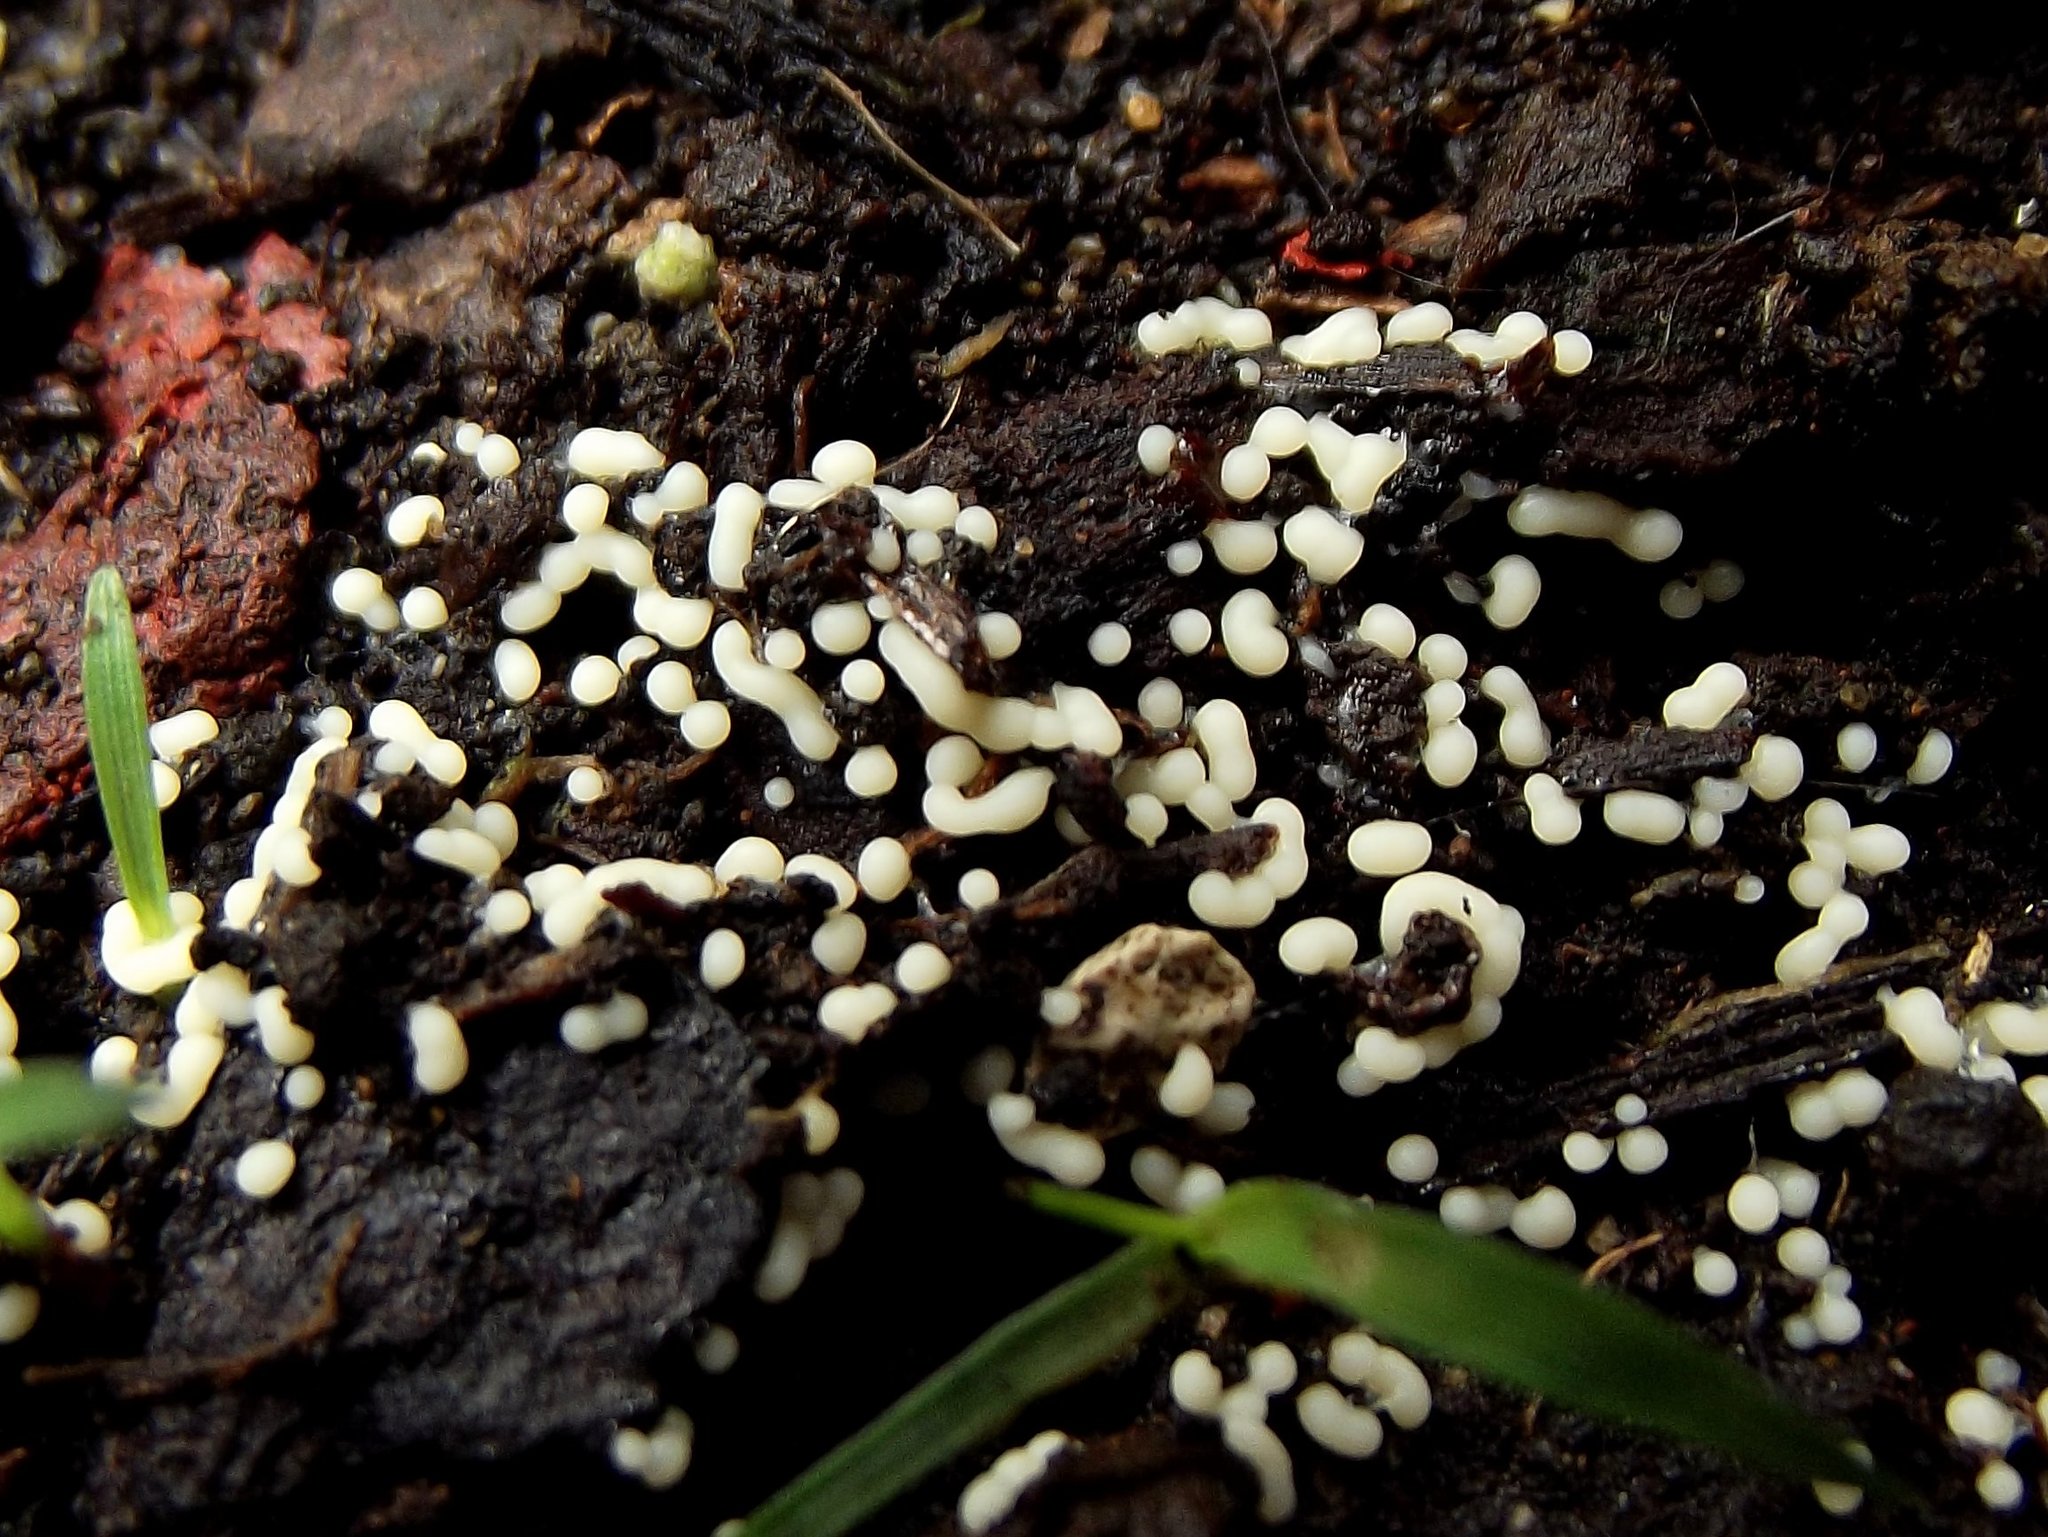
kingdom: Fungi
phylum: Basidiomycota
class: Atractiellomycetes
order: Atractiellales
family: Phleogenaceae
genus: Helicogloea
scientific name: Helicogloea compressa
